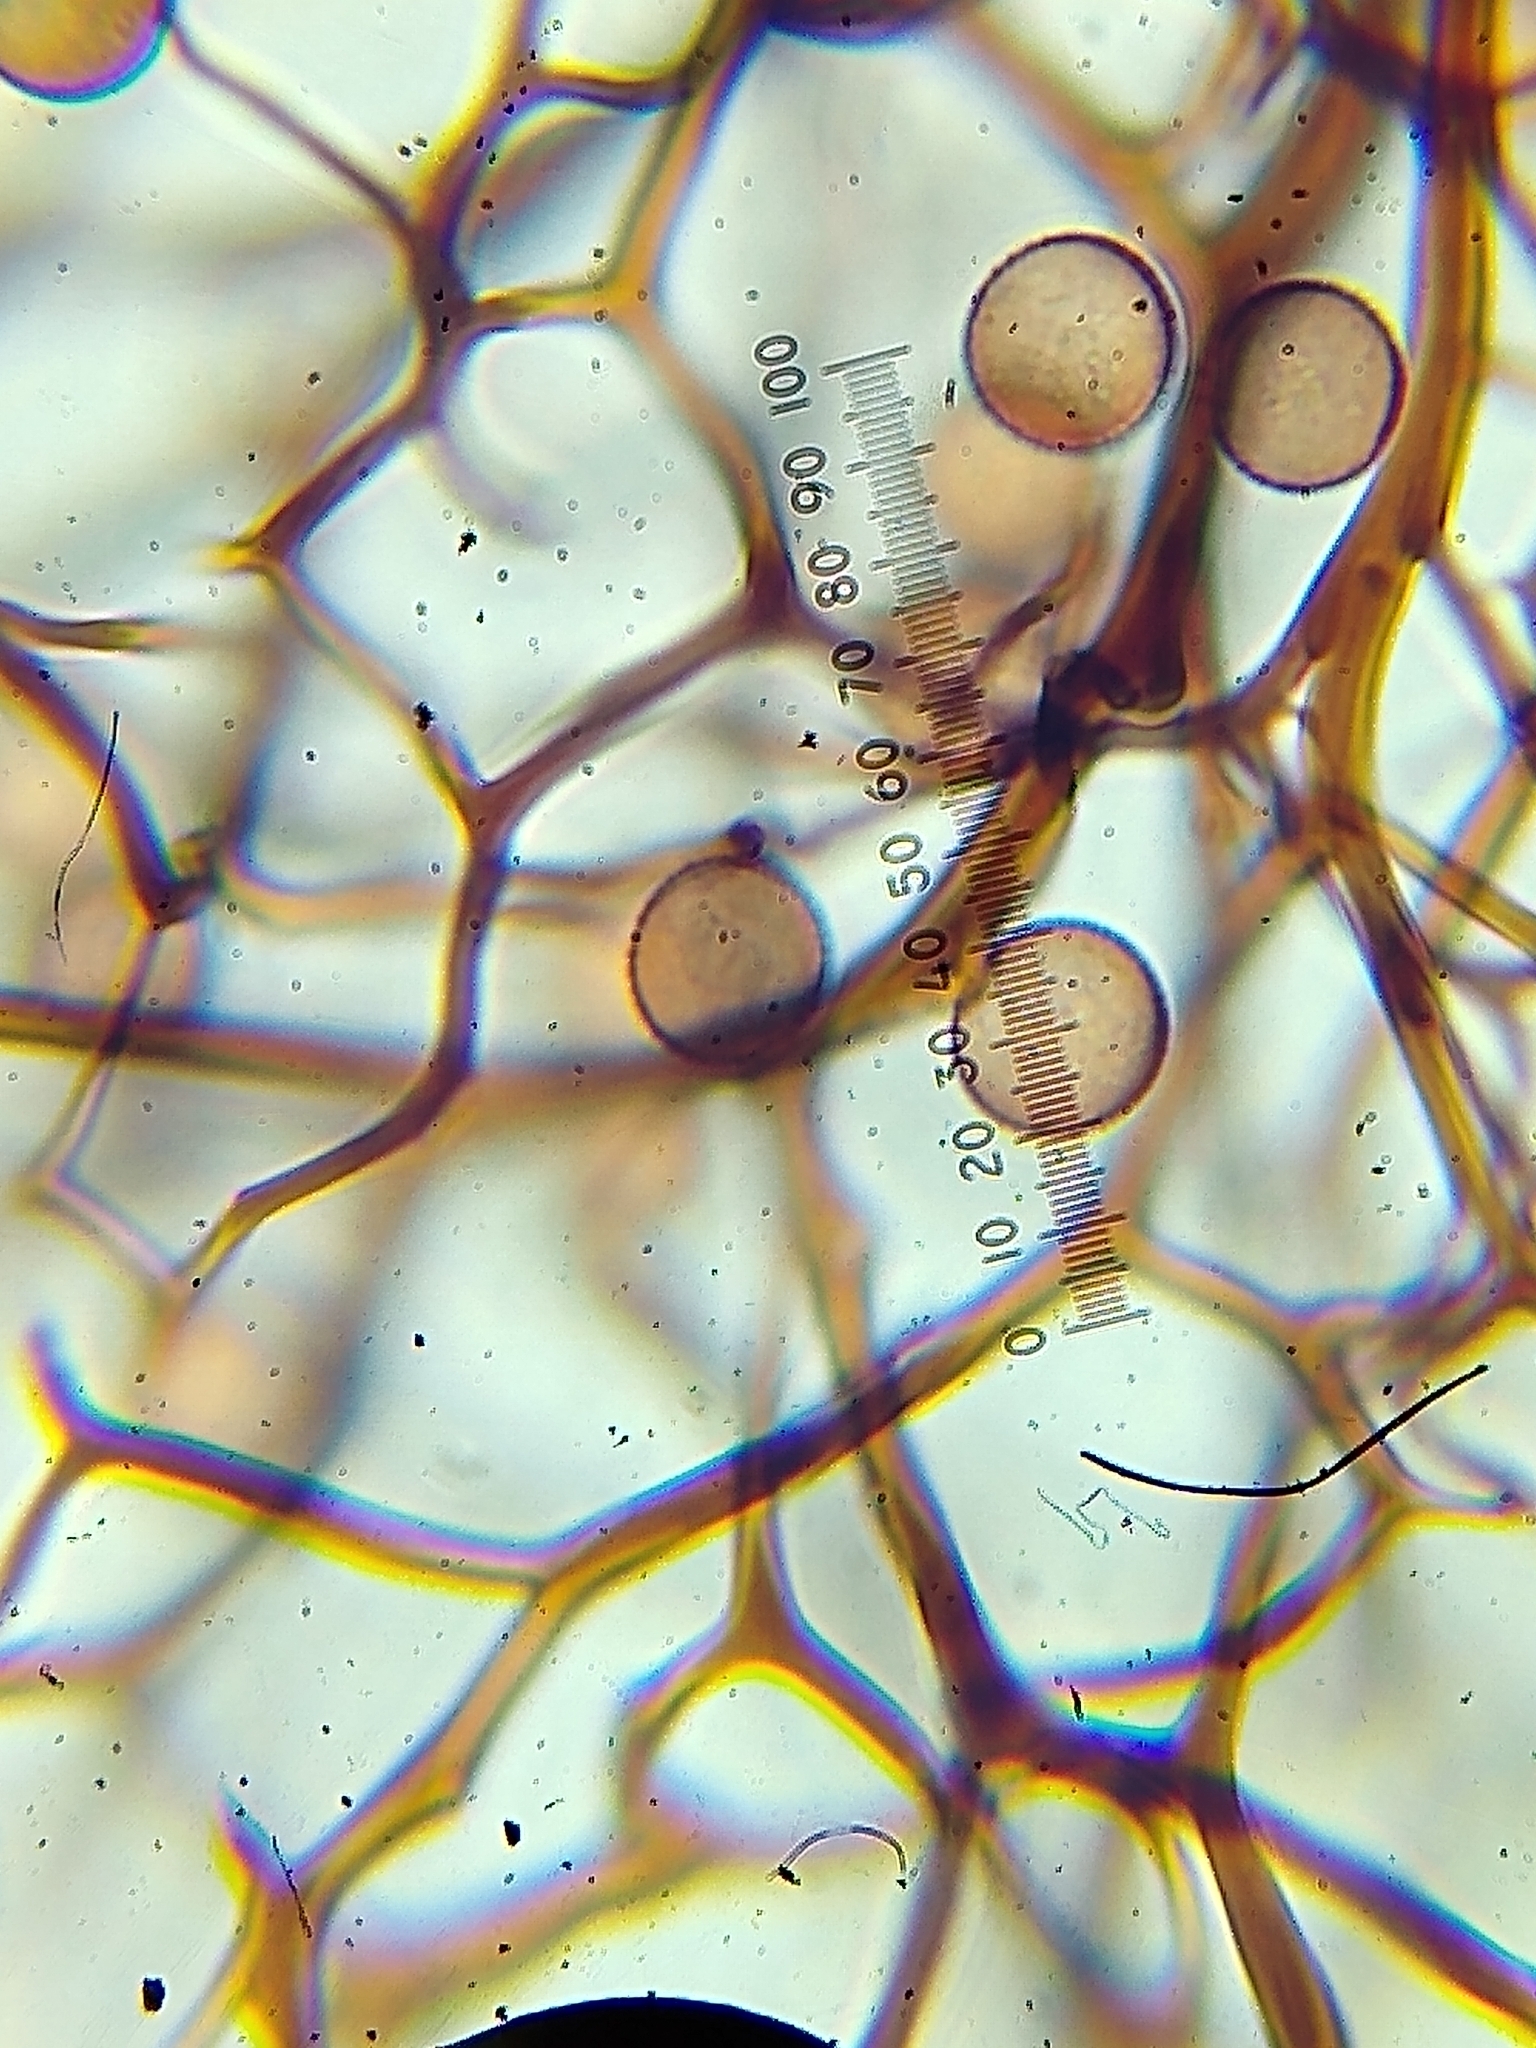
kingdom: Protozoa
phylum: Mycetozoa
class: Myxomycetes
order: Stemonitidales
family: Stemonitidaceae
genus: Comatricha
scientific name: Comatricha elegans
